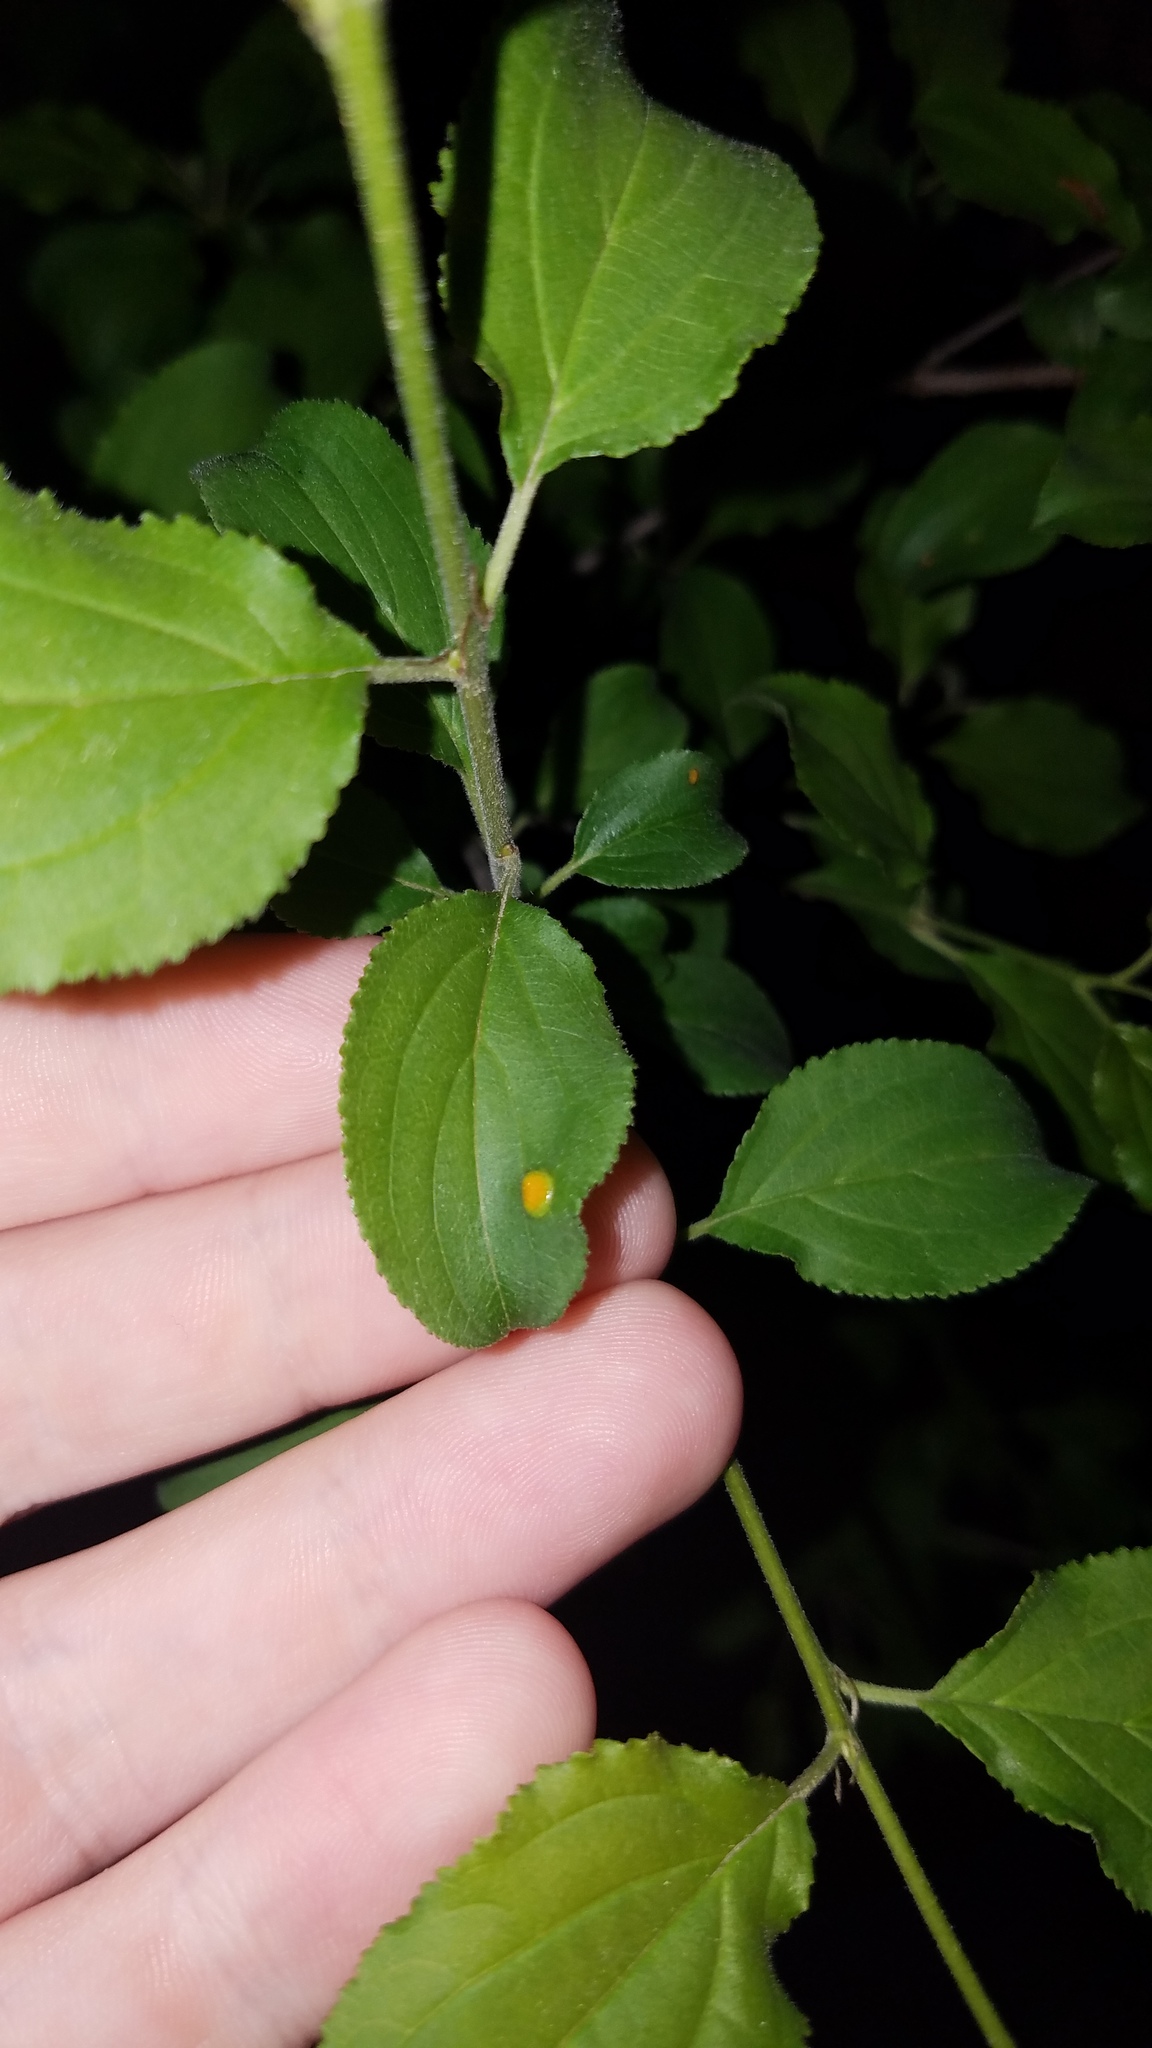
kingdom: Plantae
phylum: Tracheophyta
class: Magnoliopsida
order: Rosales
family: Rhamnaceae
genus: Rhamnus
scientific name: Rhamnus cathartica
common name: Common buckthorn
